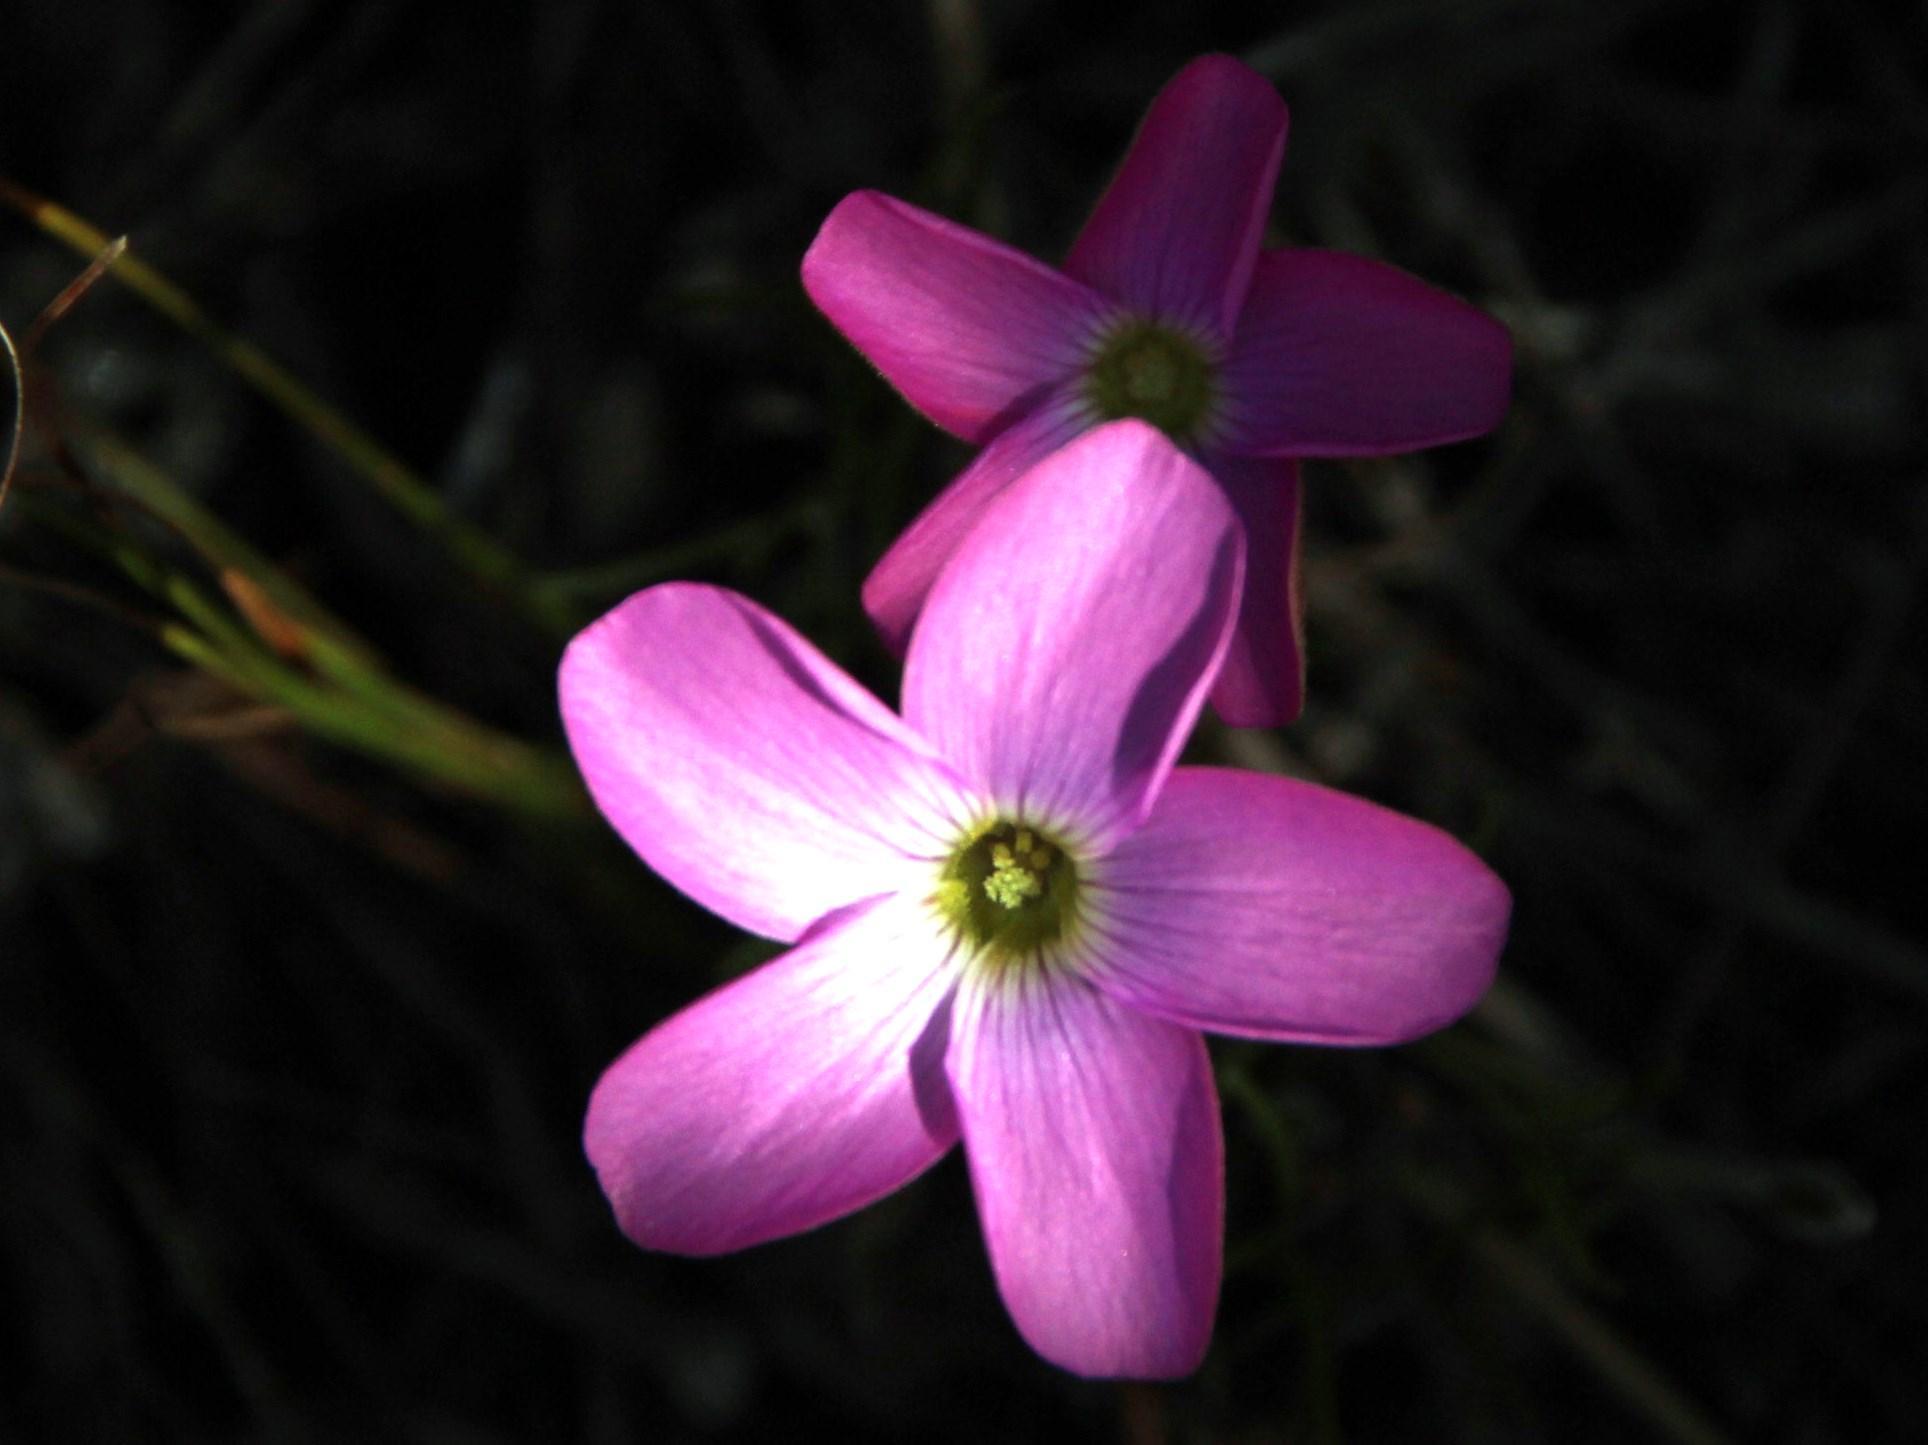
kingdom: Plantae
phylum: Tracheophyta
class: Magnoliopsida
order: Oxalidales
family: Oxalidaceae
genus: Oxalis
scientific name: Oxalis polyphylla
